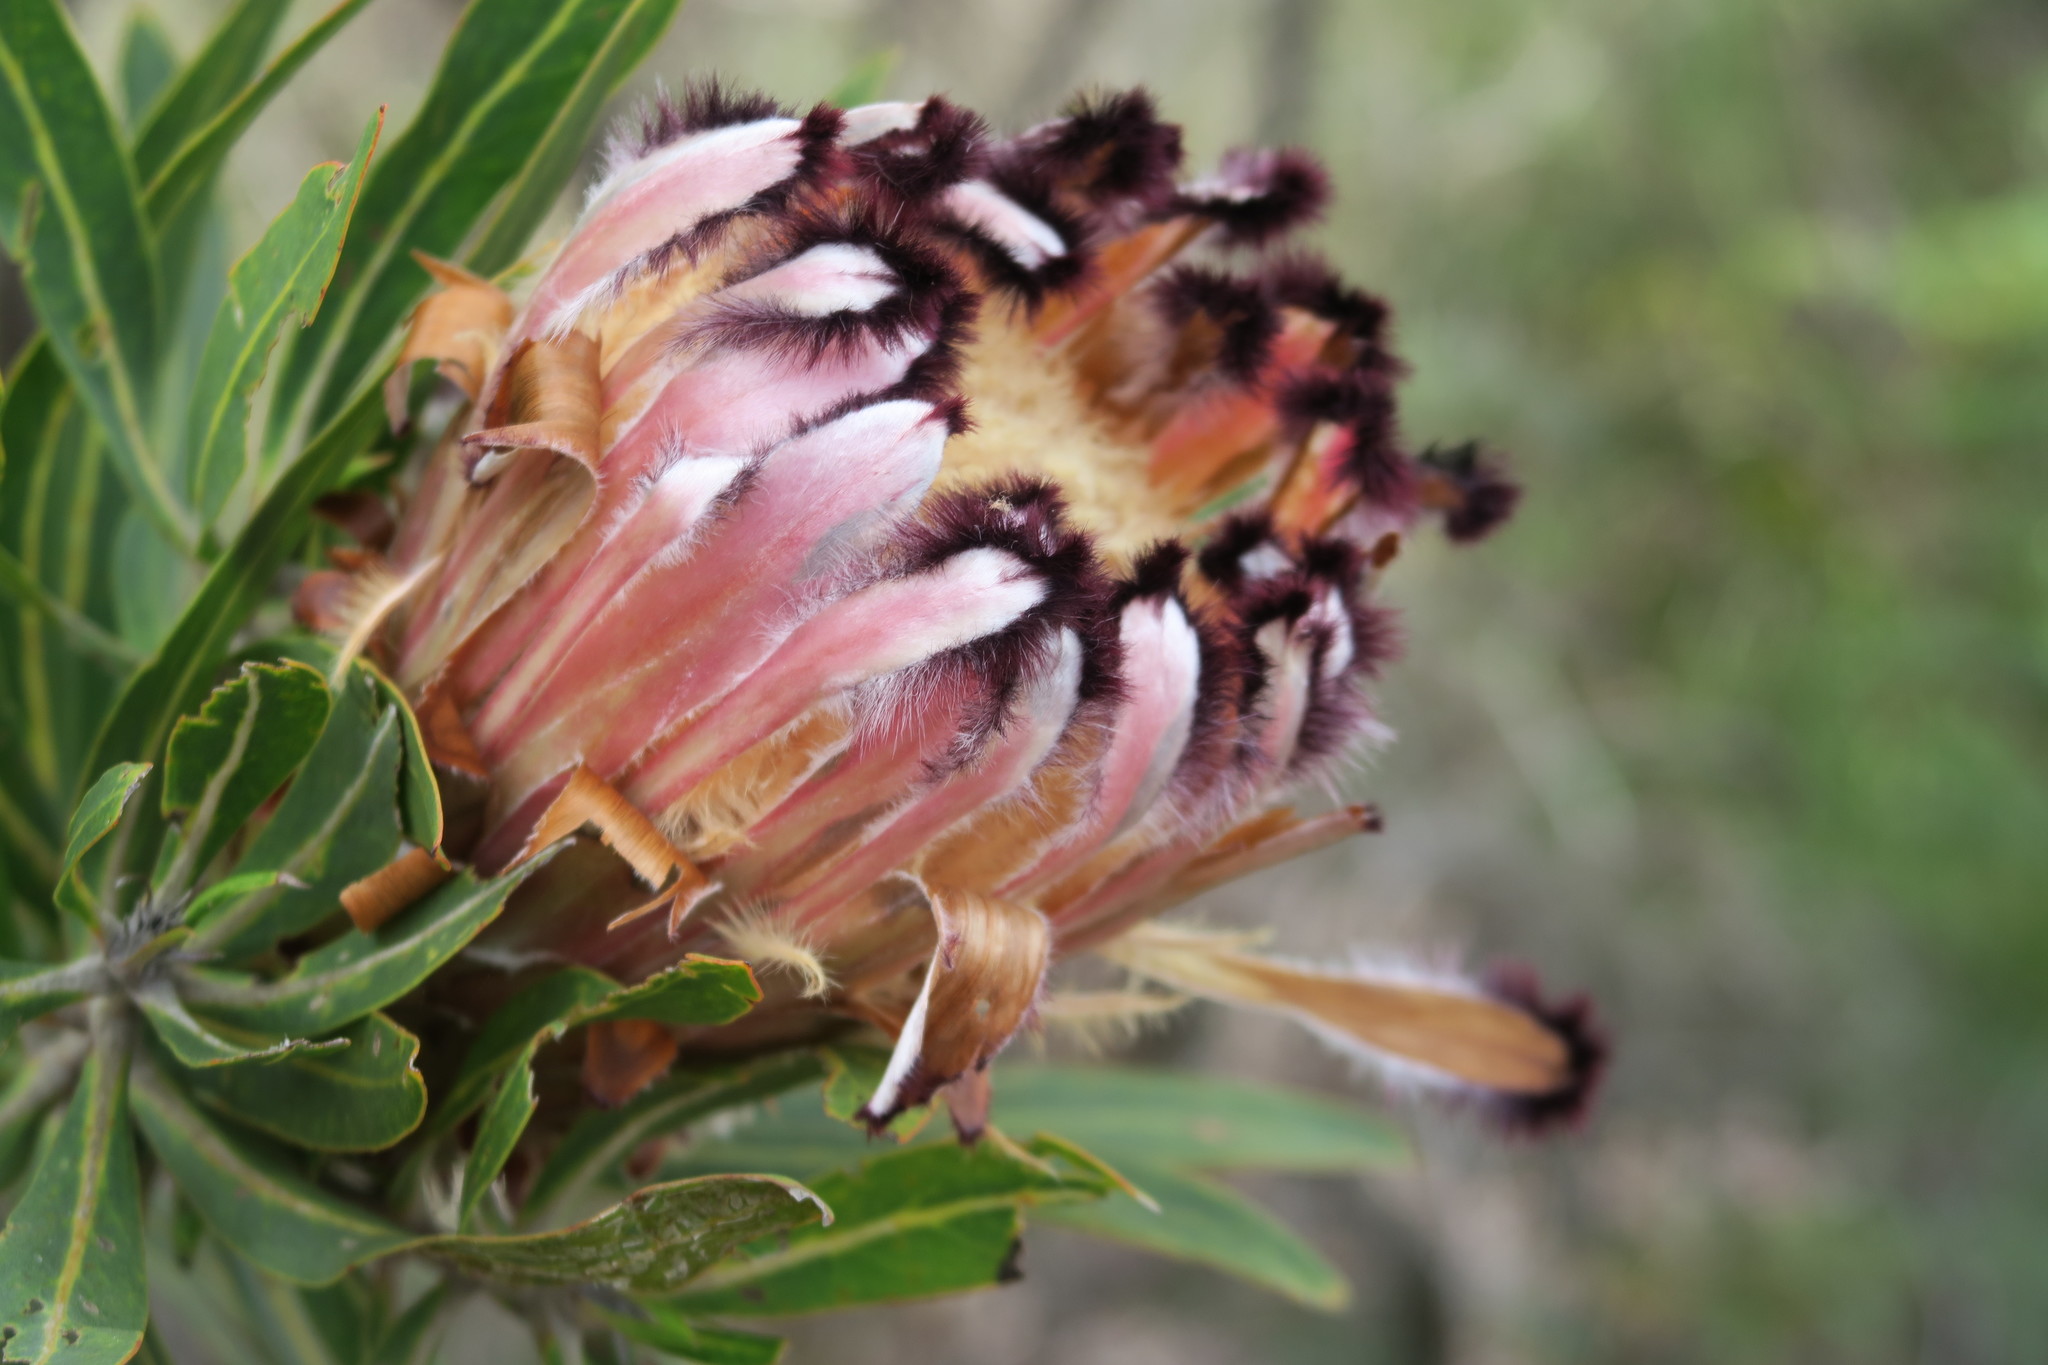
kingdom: Plantae
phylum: Tracheophyta
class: Magnoliopsida
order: Proteales
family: Proteaceae
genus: Protea
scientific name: Protea neriifolia
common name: Blue sugarbush
